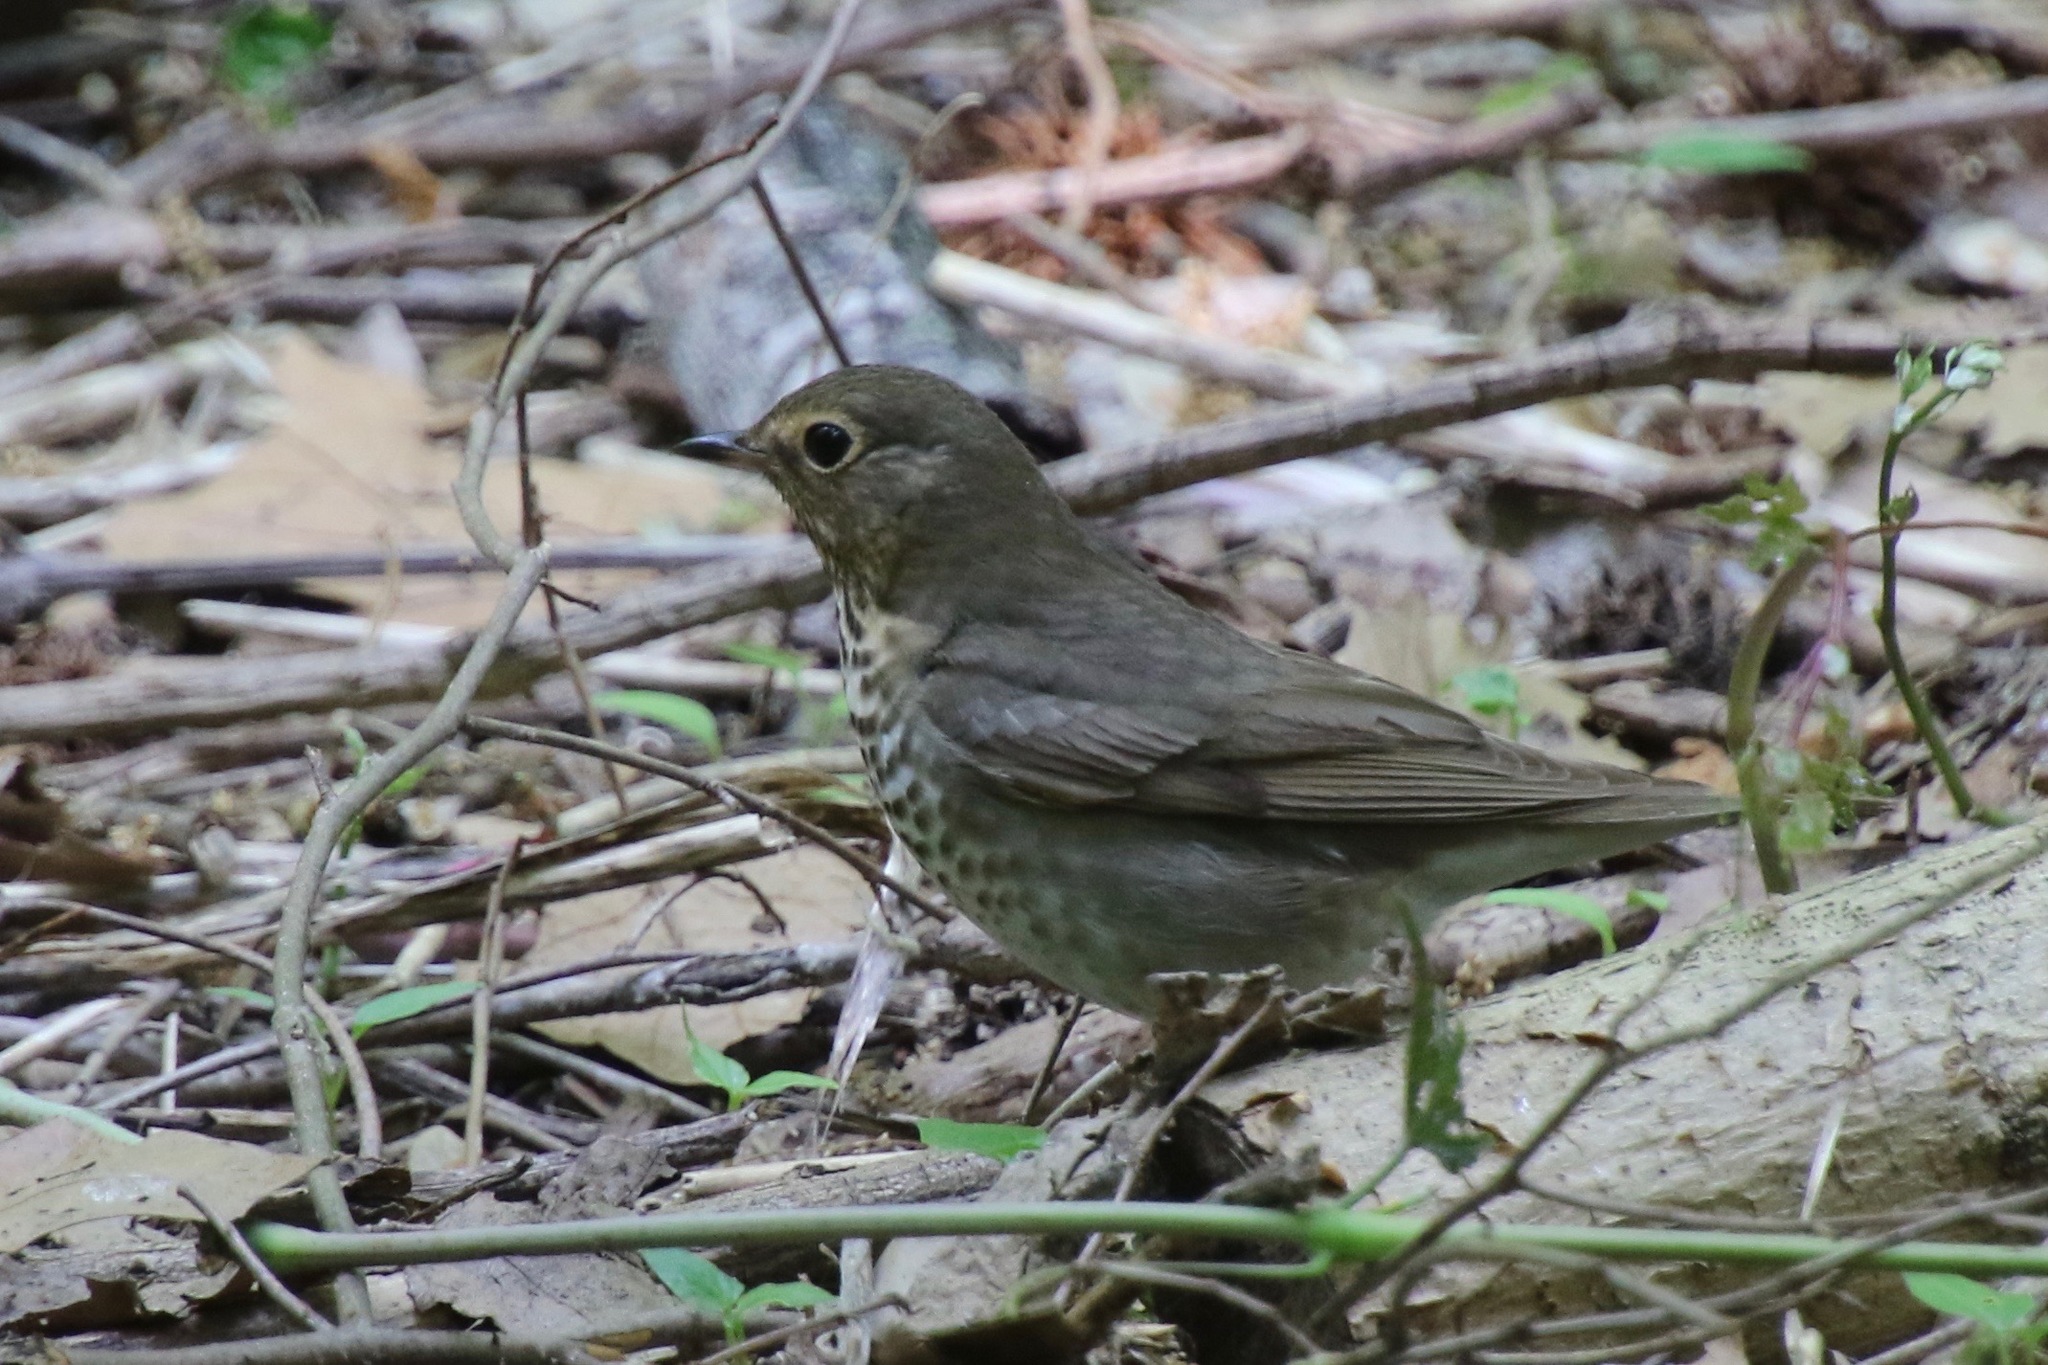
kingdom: Animalia
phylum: Chordata
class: Aves
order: Passeriformes
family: Turdidae
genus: Catharus
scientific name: Catharus ustulatus
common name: Swainson's thrush
